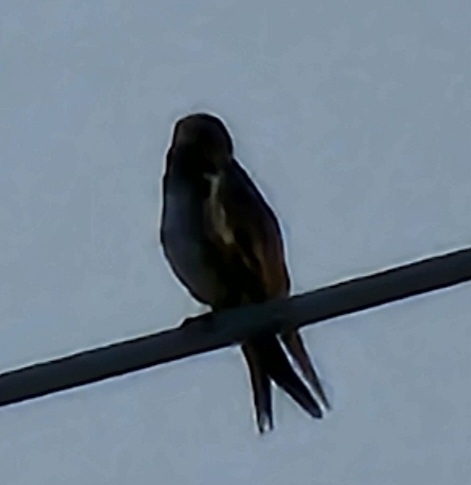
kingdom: Animalia
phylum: Chordata
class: Aves
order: Passeriformes
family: Hirundinidae
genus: Progne
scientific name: Progne subis
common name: Purple martin
